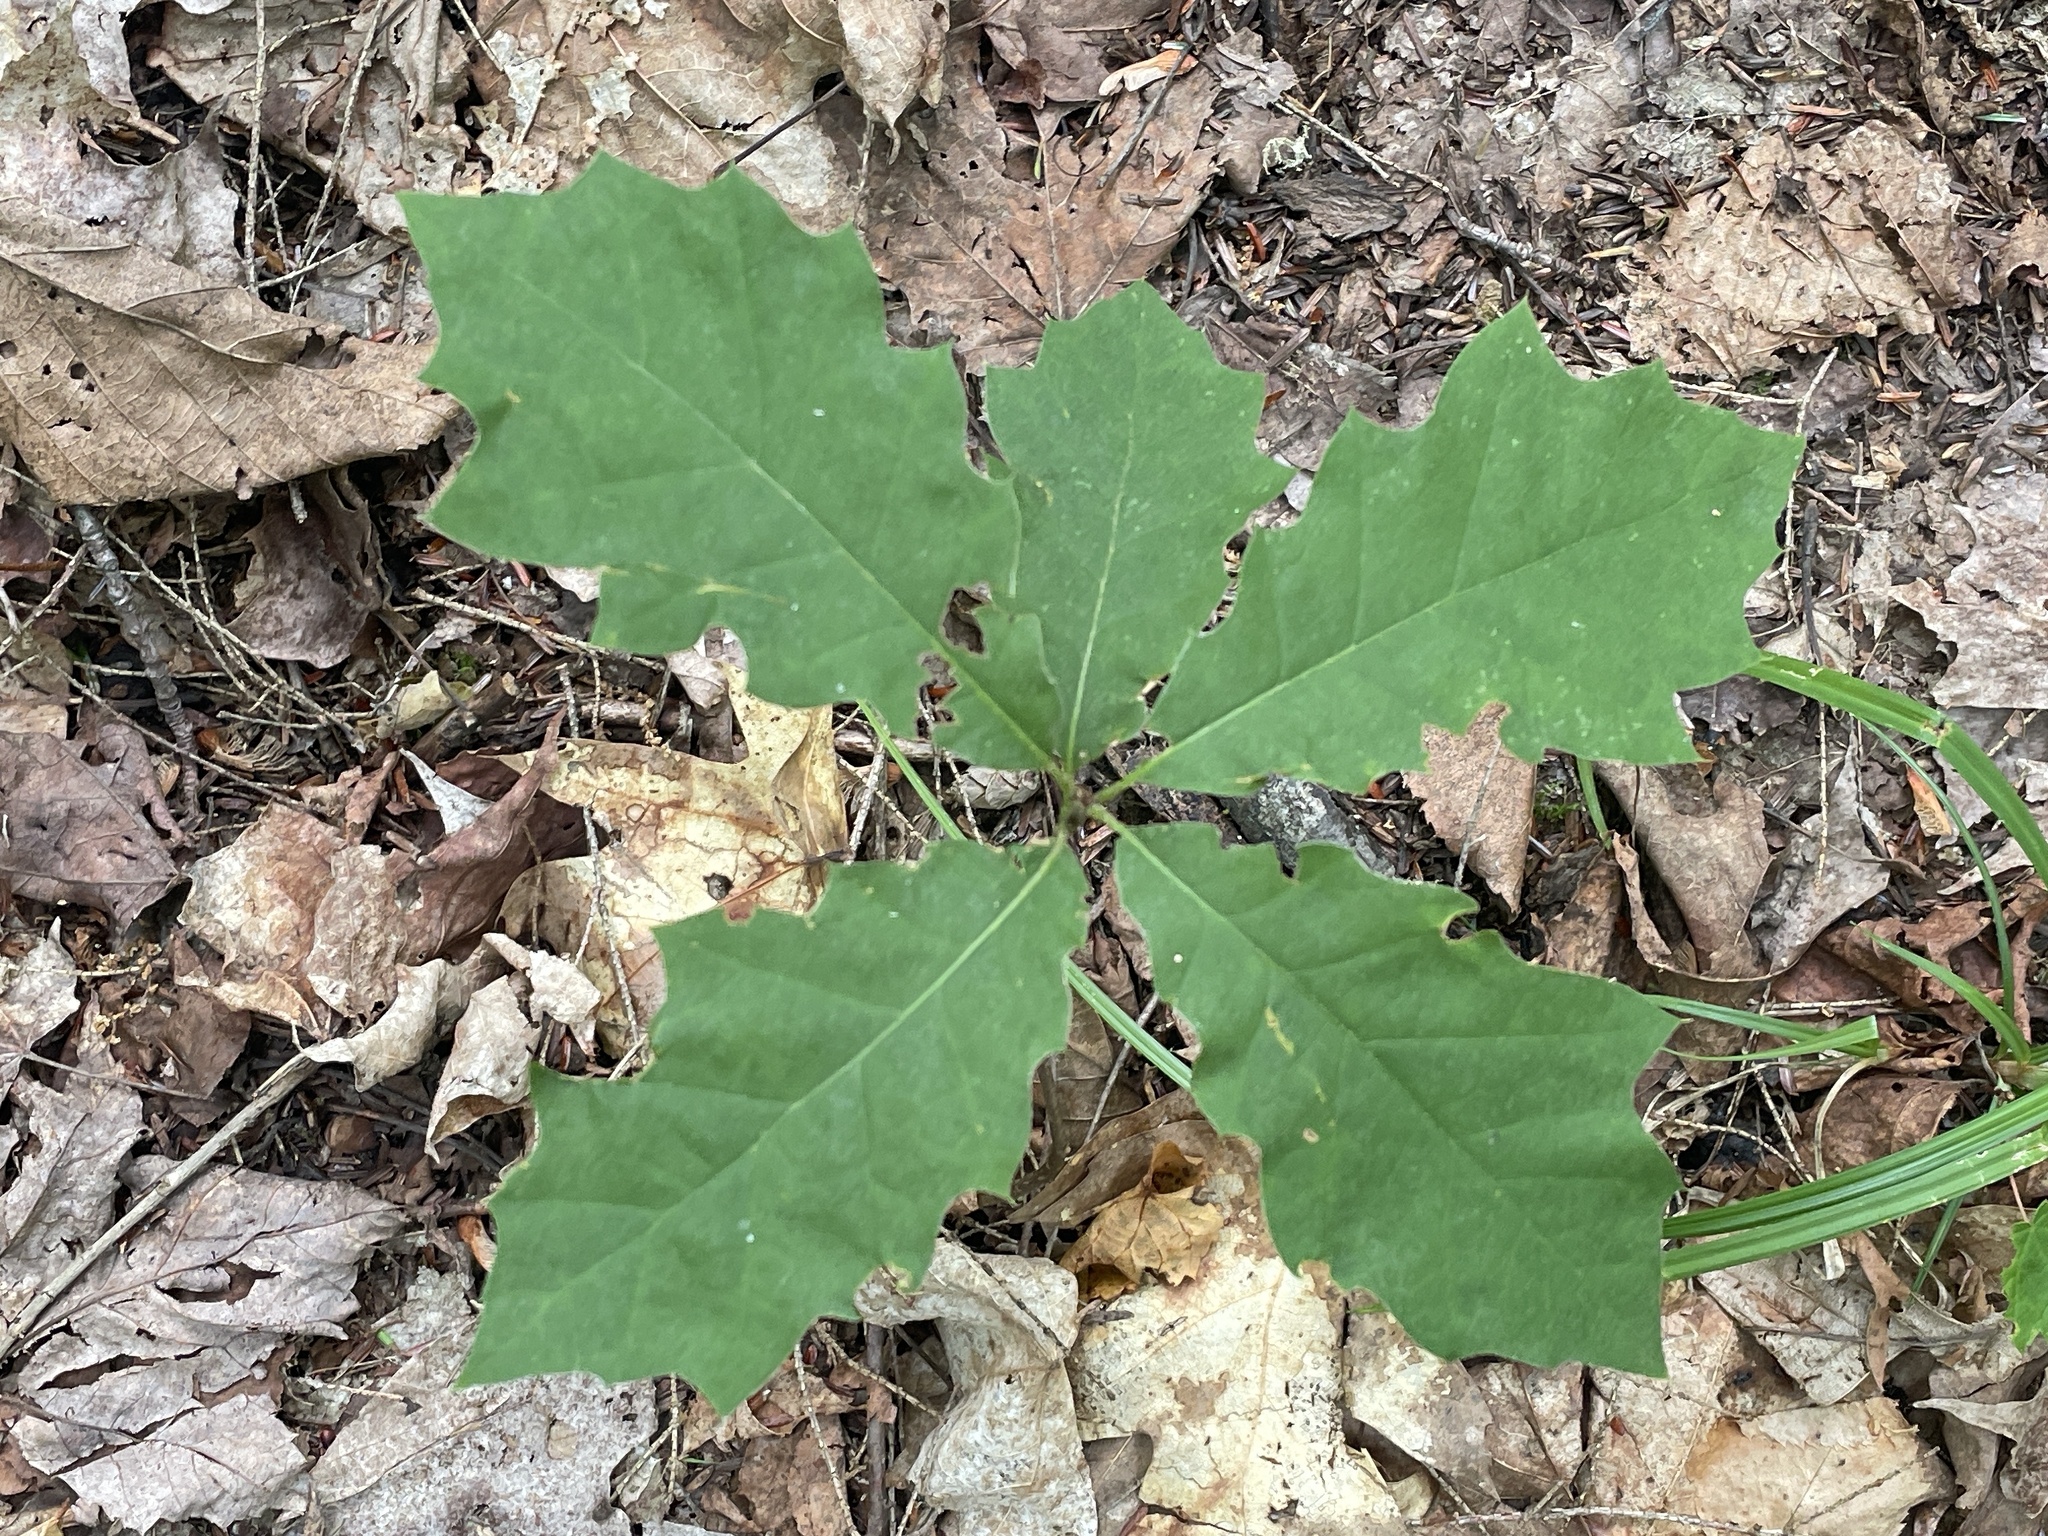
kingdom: Plantae
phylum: Tracheophyta
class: Magnoliopsida
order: Fagales
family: Fagaceae
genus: Quercus
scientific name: Quercus rubra
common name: Red oak
